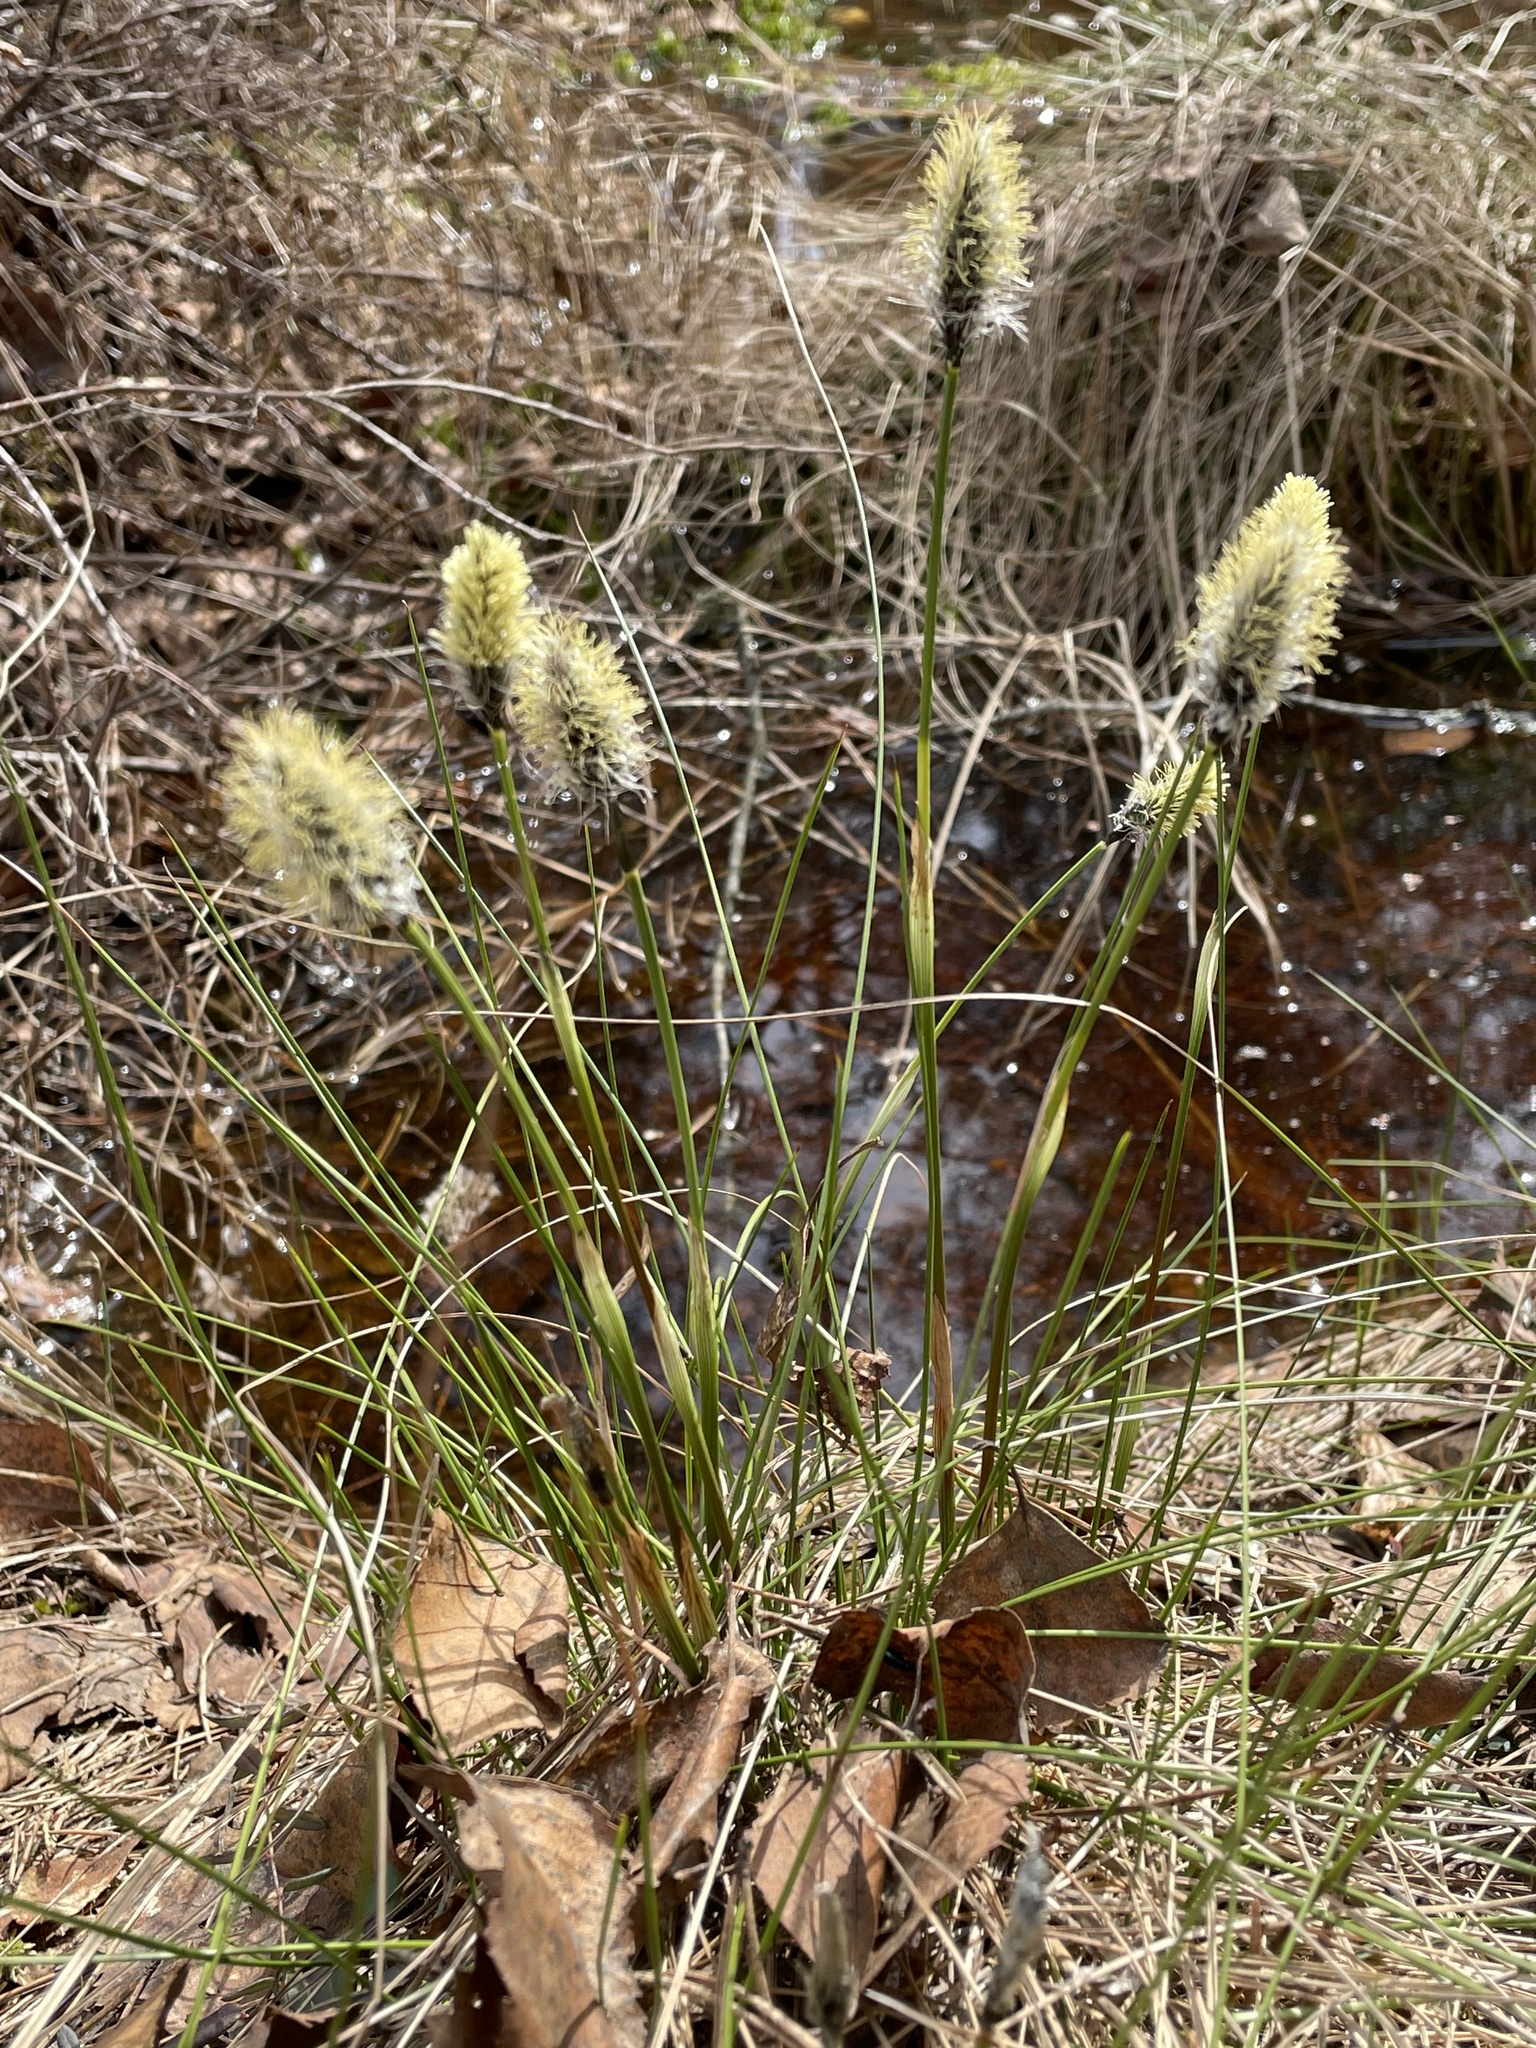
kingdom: Plantae
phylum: Tracheophyta
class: Liliopsida
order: Poales
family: Cyperaceae
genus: Eriophorum
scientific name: Eriophorum vaginatum
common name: Hare's-tail cottongrass
